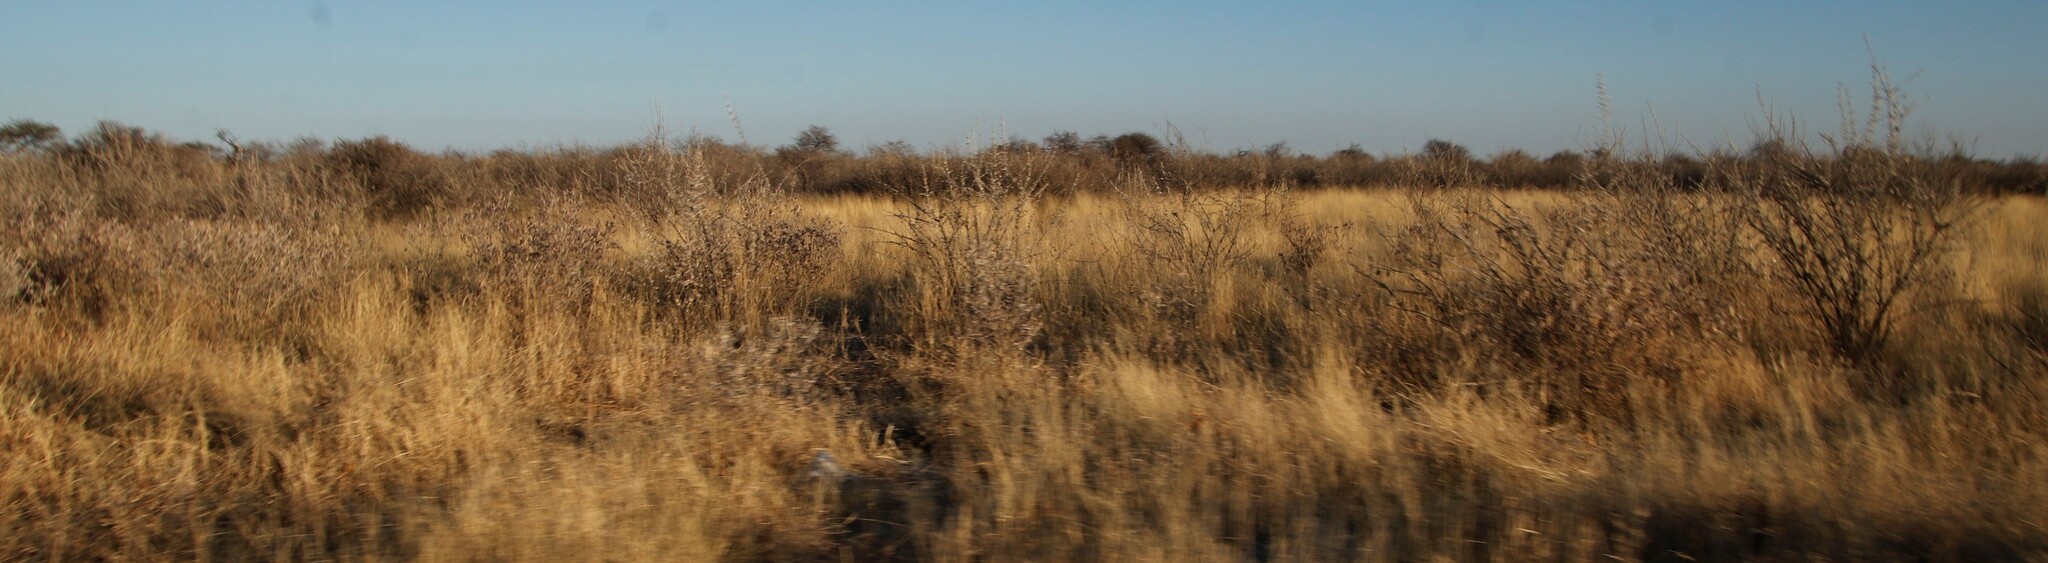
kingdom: Plantae
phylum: Tracheophyta
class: Magnoliopsida
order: Lamiales
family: Bignoniaceae
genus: Catophractes
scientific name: Catophractes alexandri
